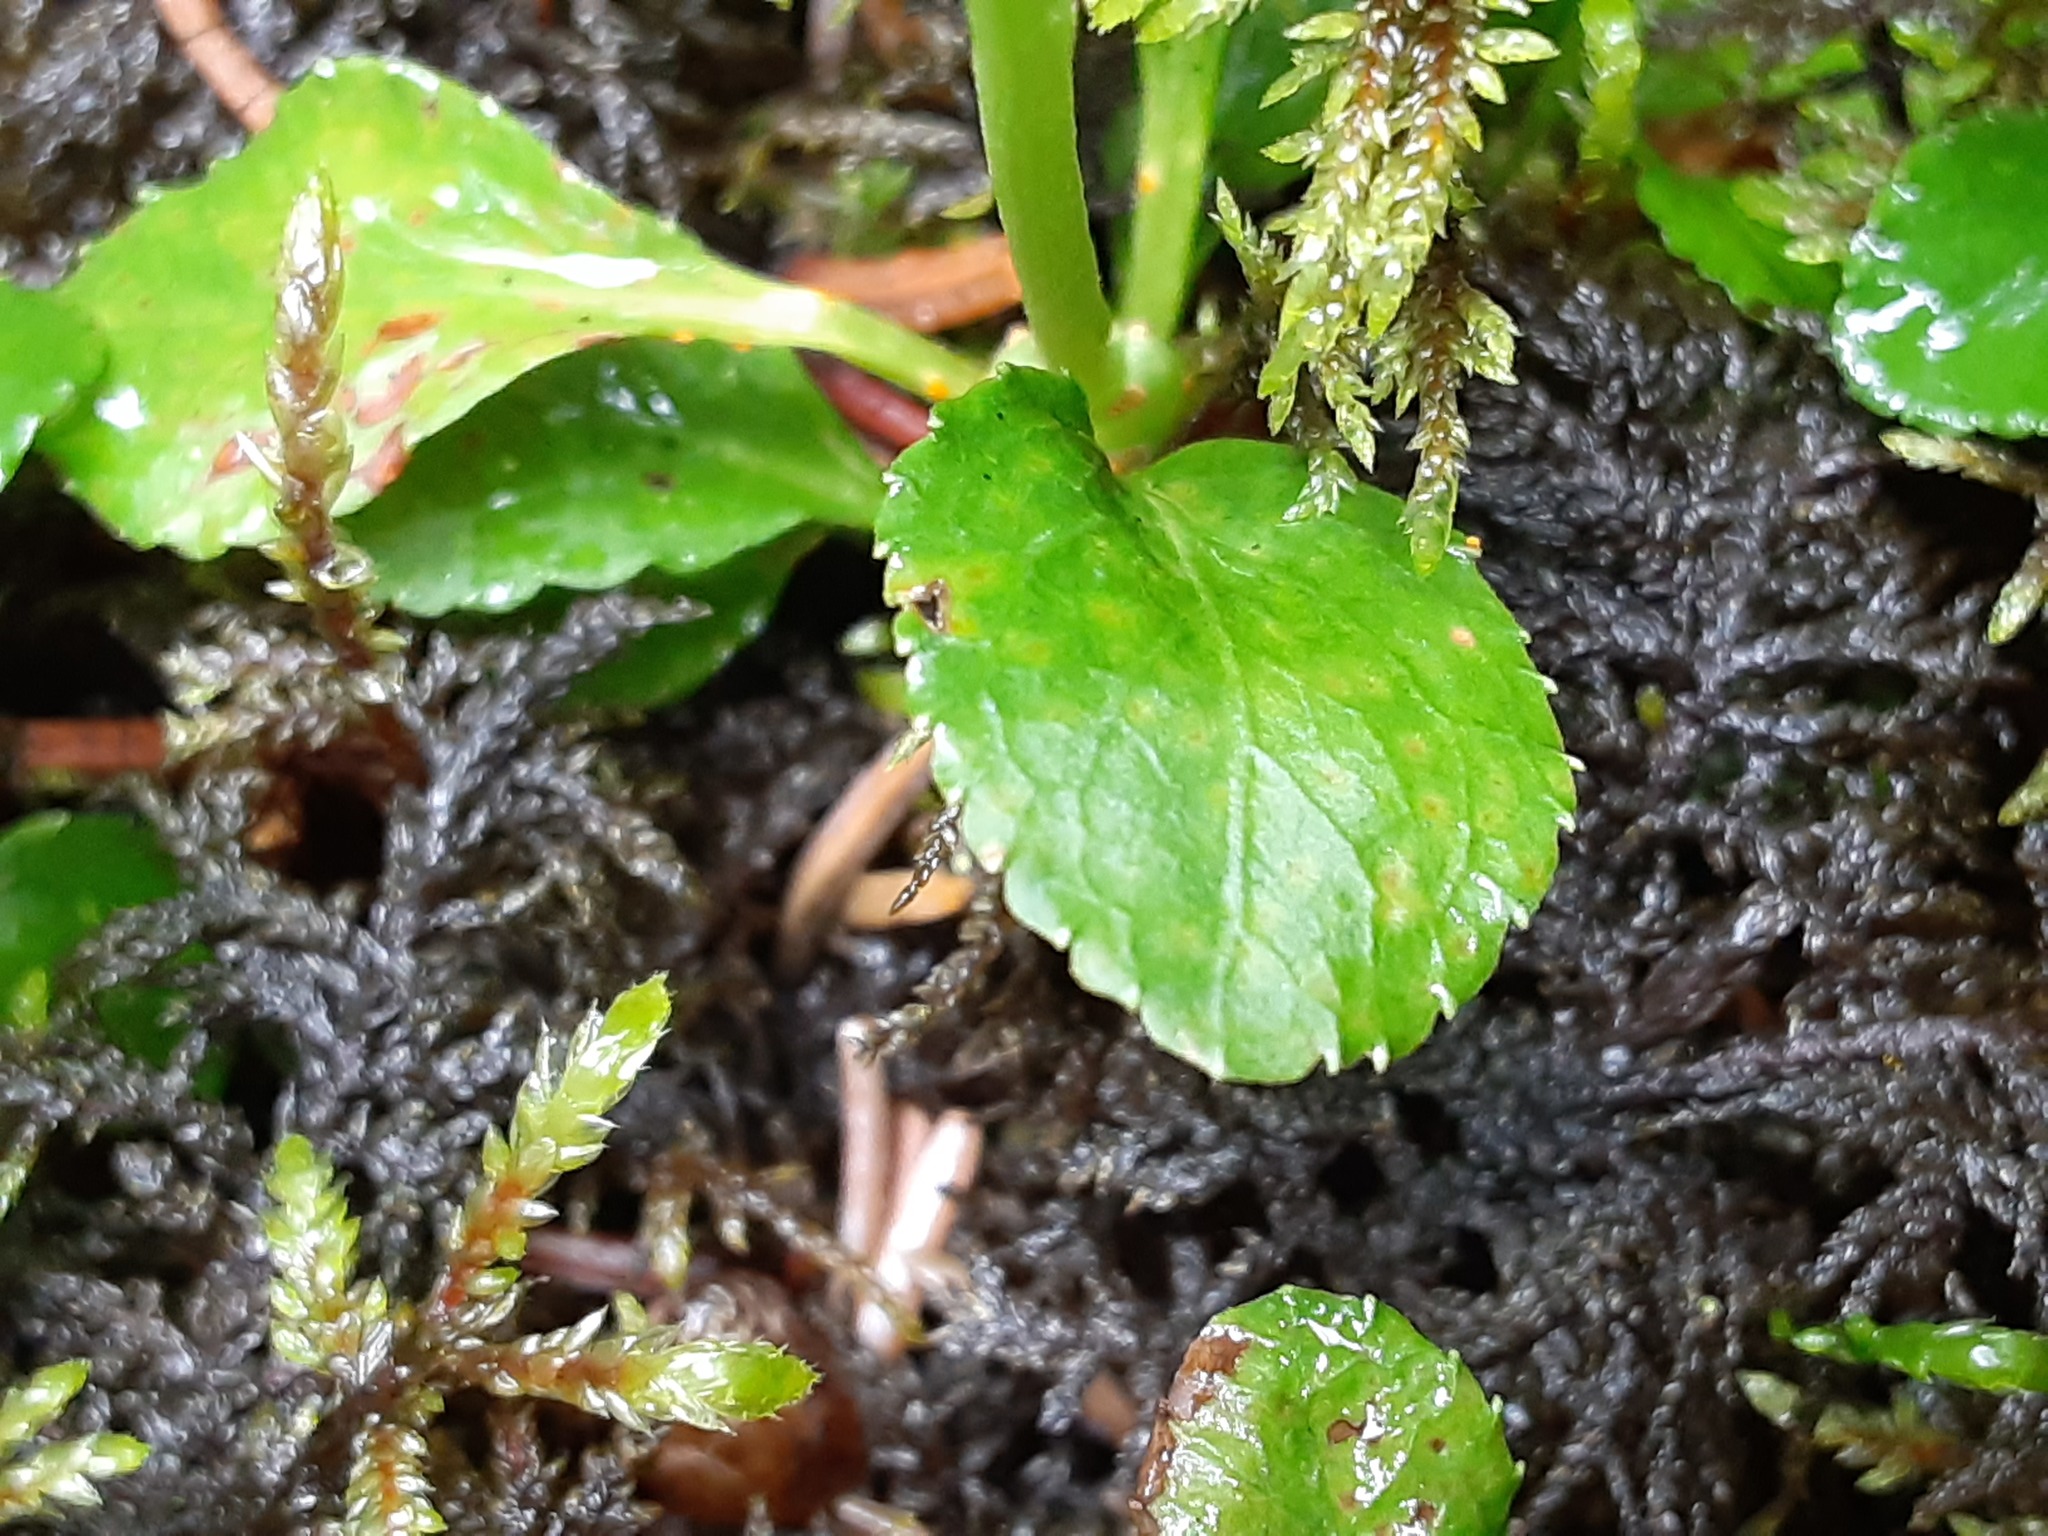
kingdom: Plantae
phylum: Tracheophyta
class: Magnoliopsida
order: Ericales
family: Ericaceae
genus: Moneses
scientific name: Moneses uniflora
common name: One-flowered wintergreen
